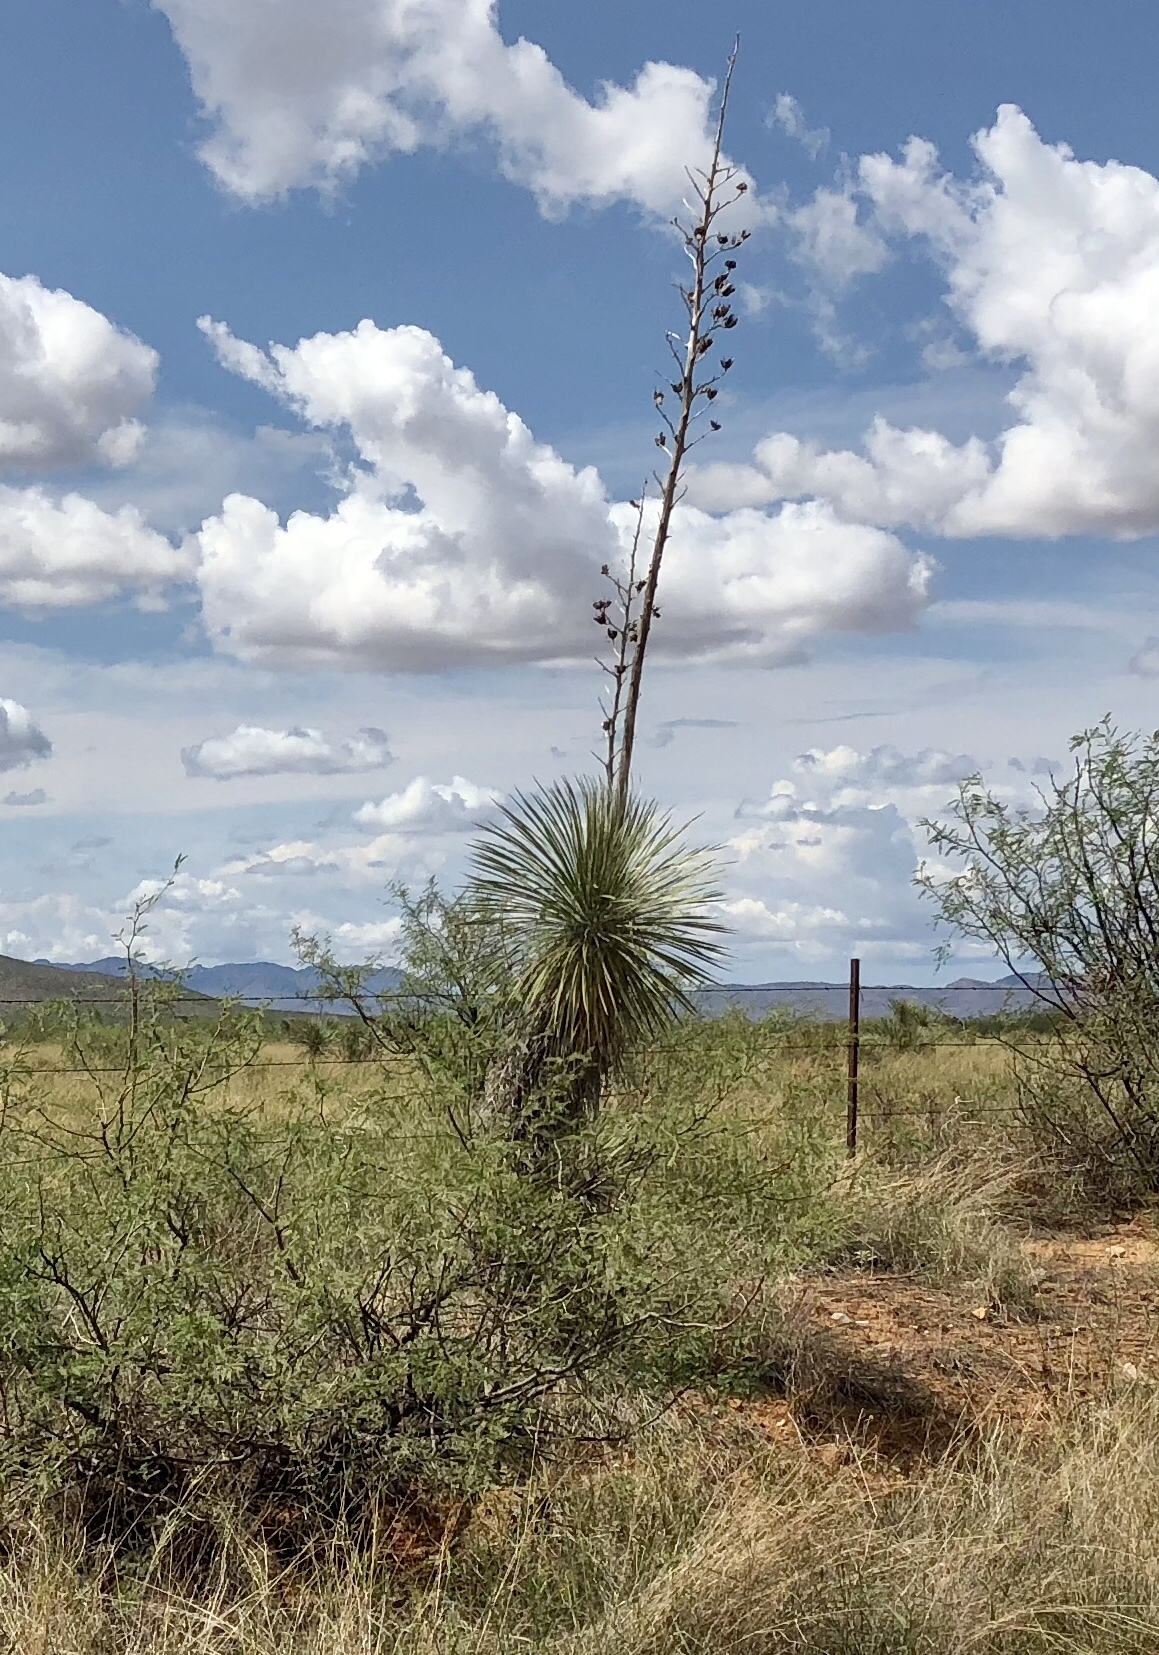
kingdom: Plantae
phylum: Tracheophyta
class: Liliopsida
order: Asparagales
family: Asparagaceae
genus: Yucca
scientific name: Yucca elata
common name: Palmella
